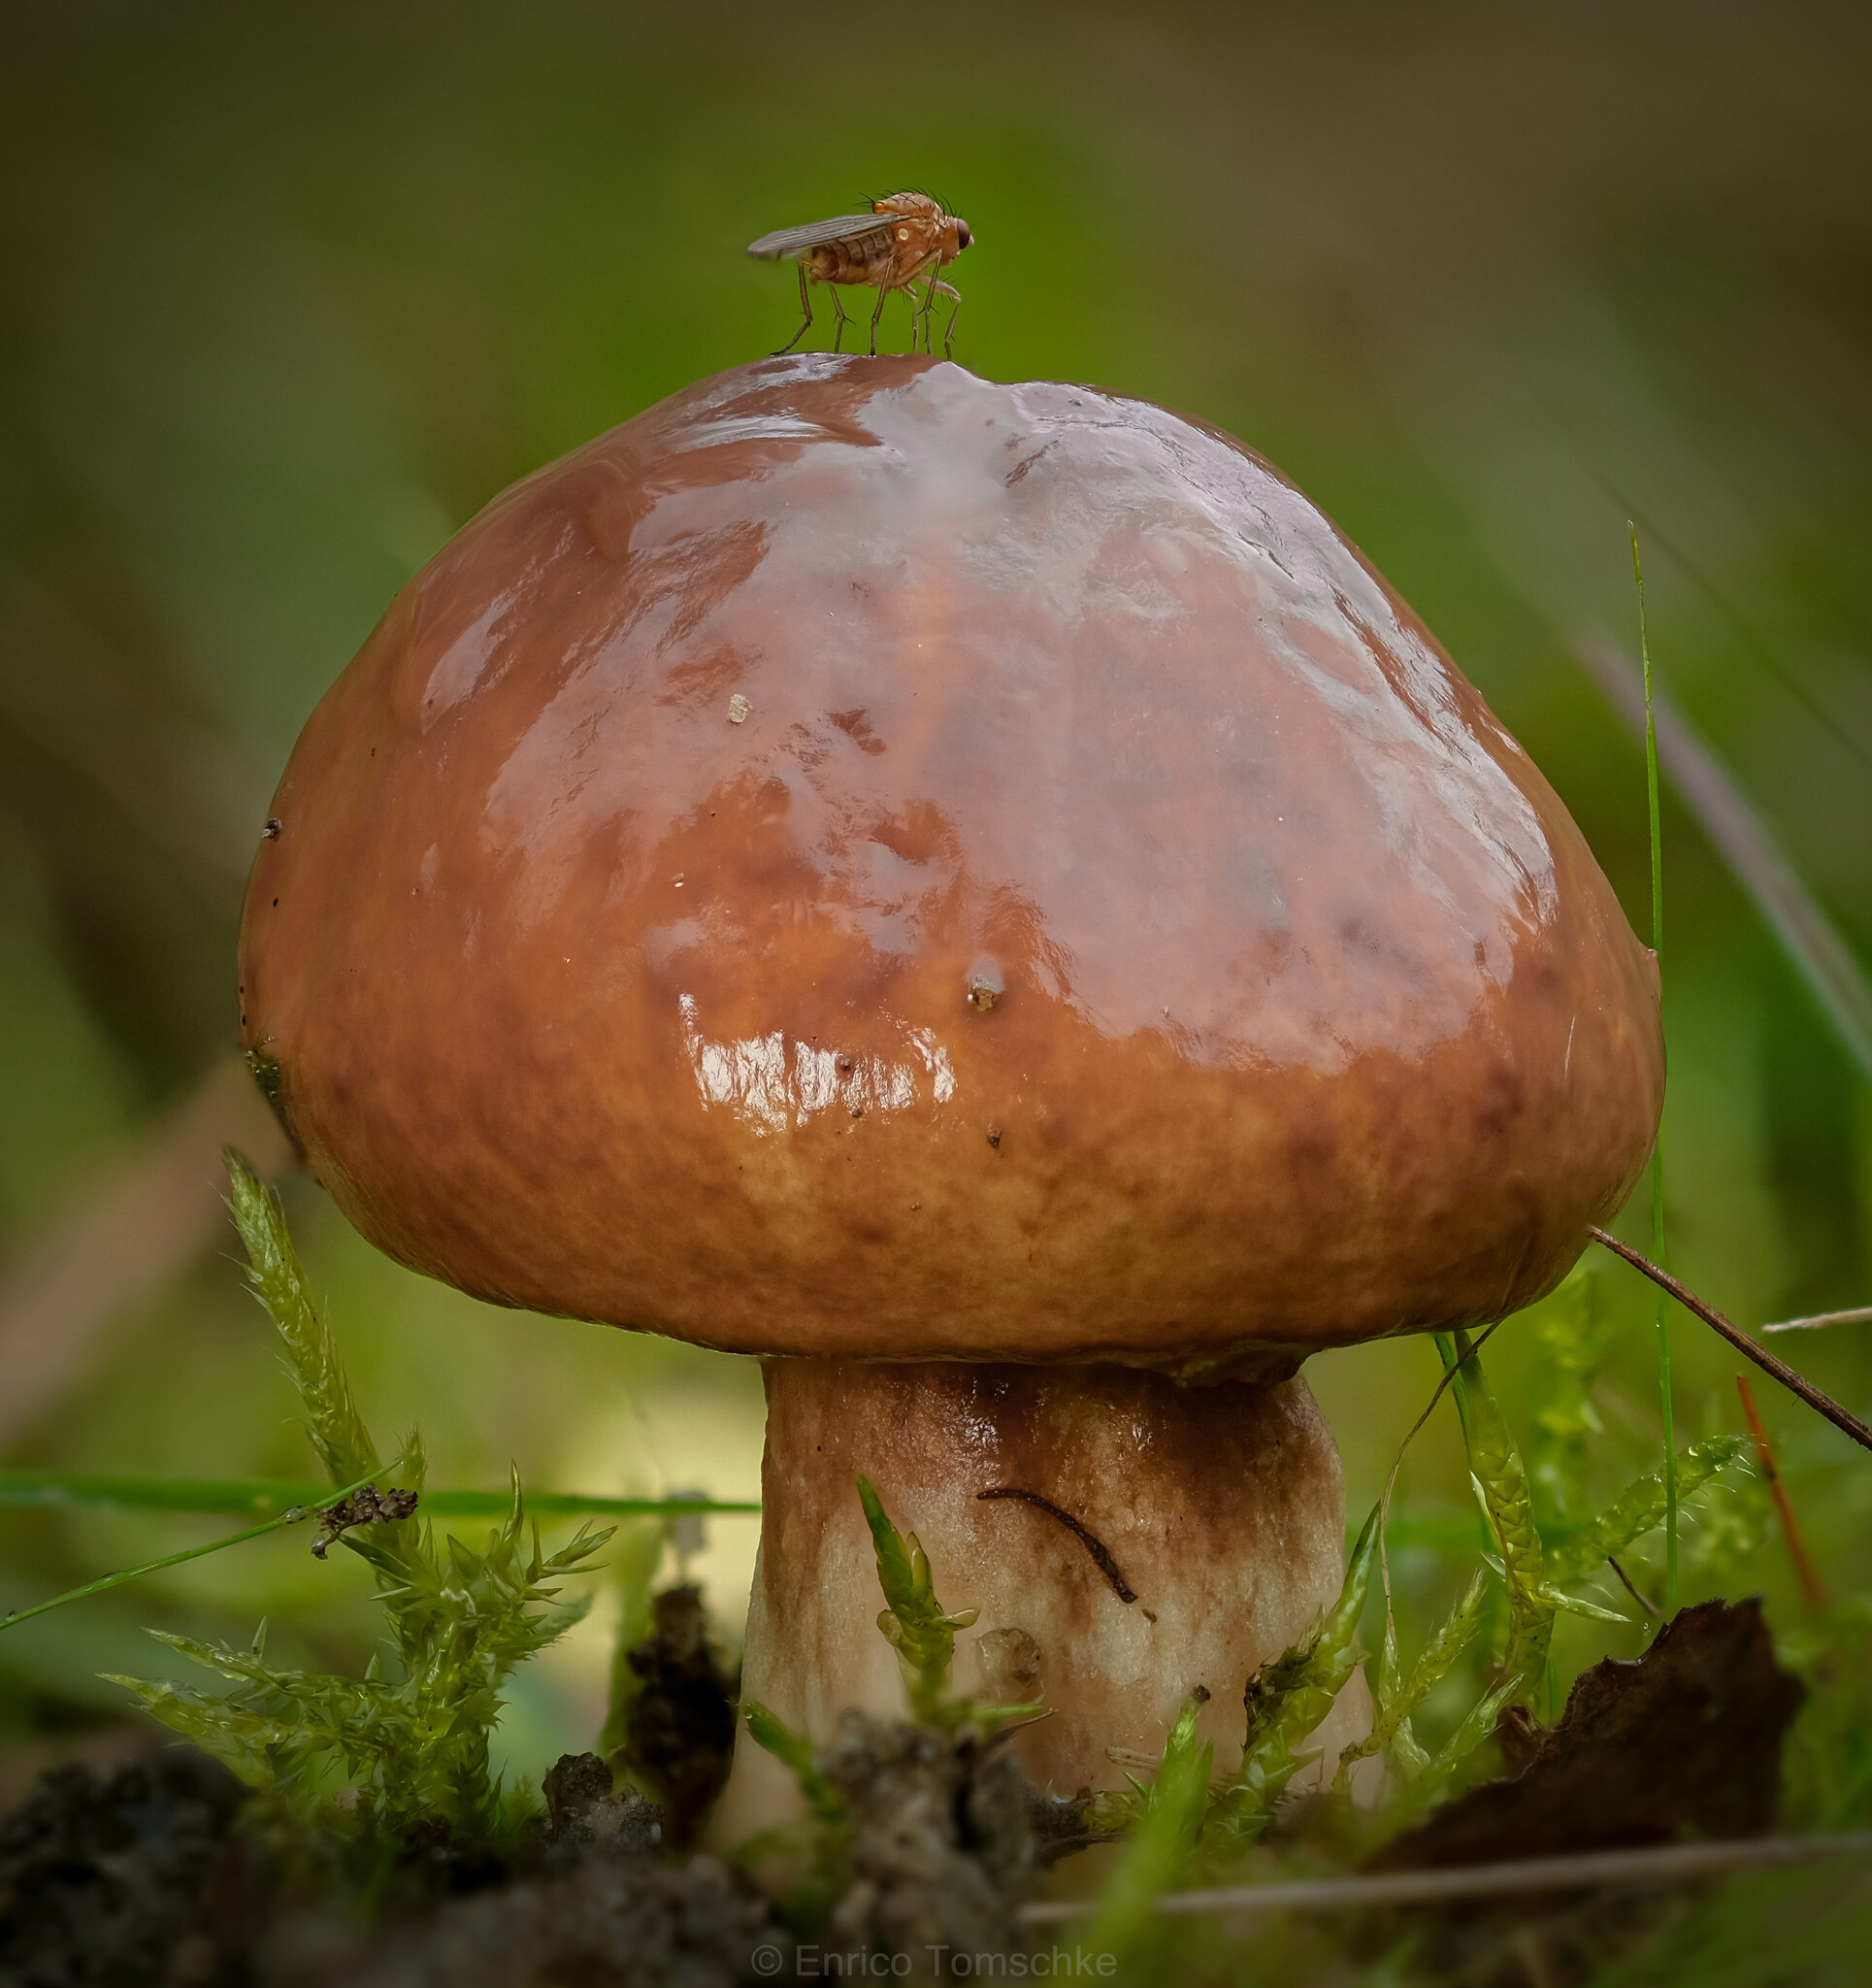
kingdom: Fungi
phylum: Basidiomycota
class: Agaricomycetes
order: Boletales
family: Suillaceae
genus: Suillus
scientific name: Suillus luteus
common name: Slippery jack
